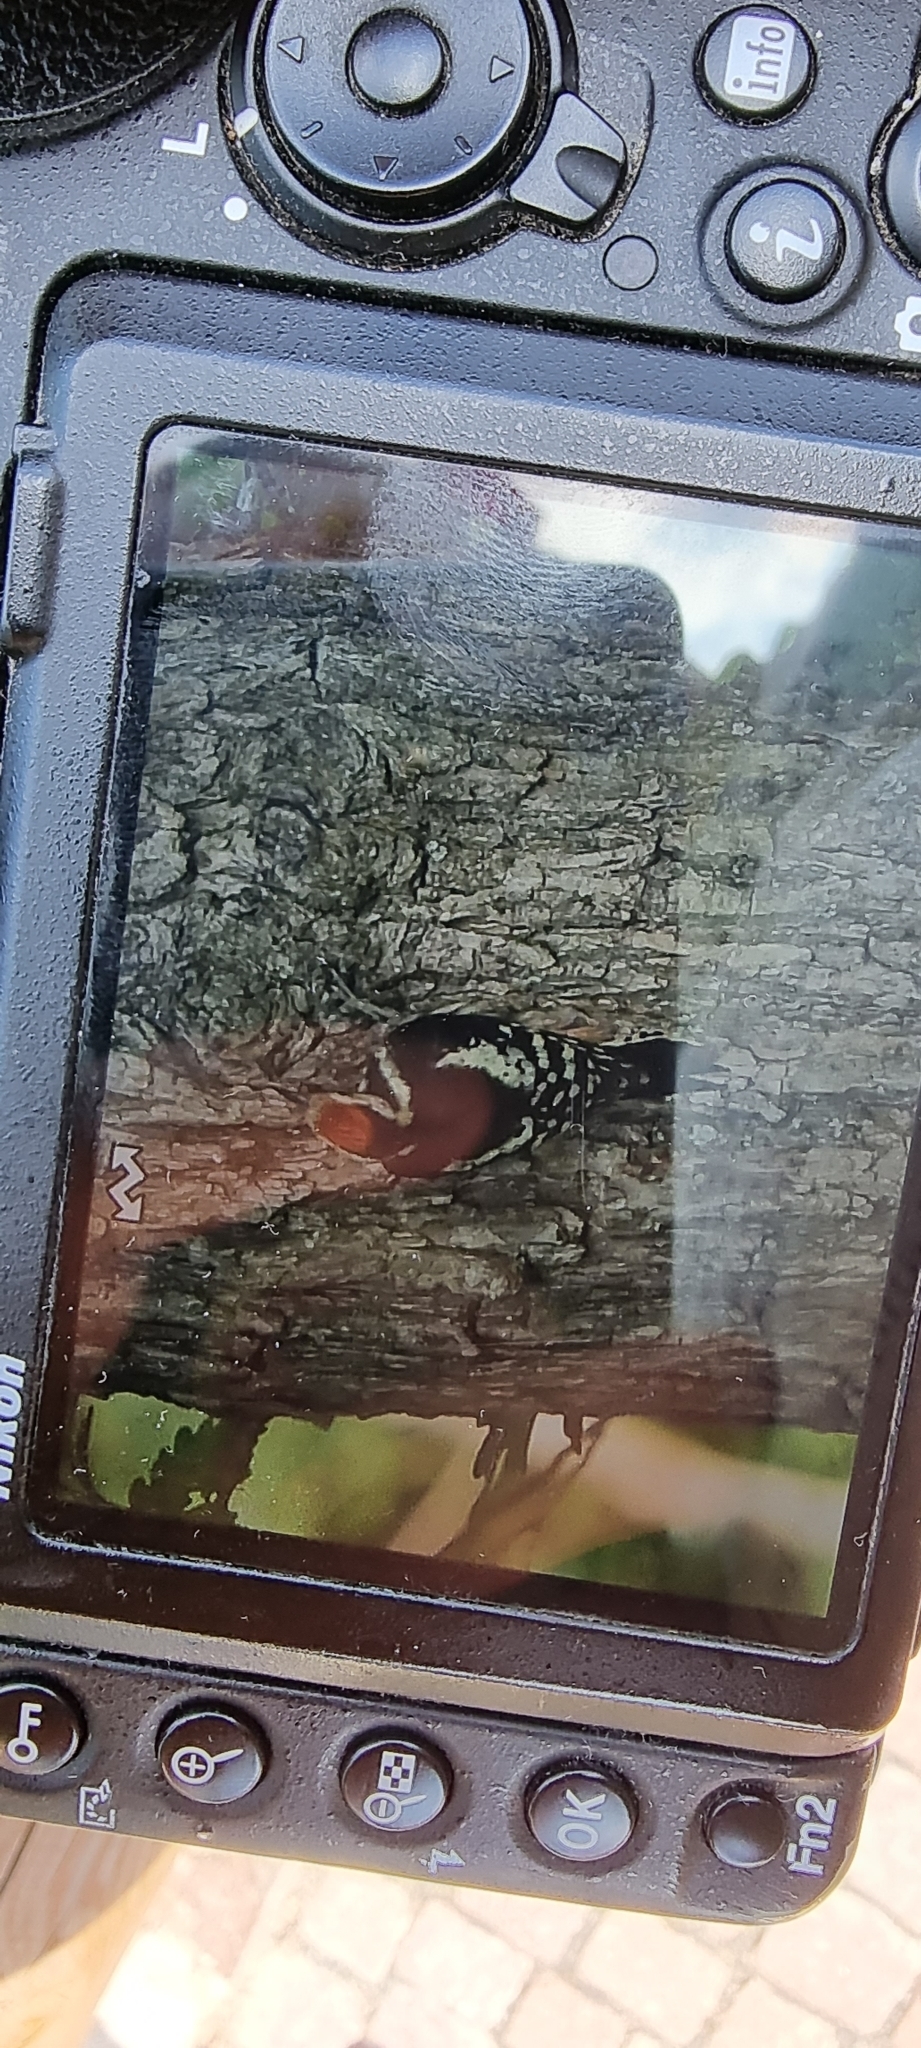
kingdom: Animalia
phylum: Chordata
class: Aves
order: Piciformes
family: Picidae
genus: Dendrocoptes
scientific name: Dendrocoptes medius
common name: Middle spotted woodpecker
